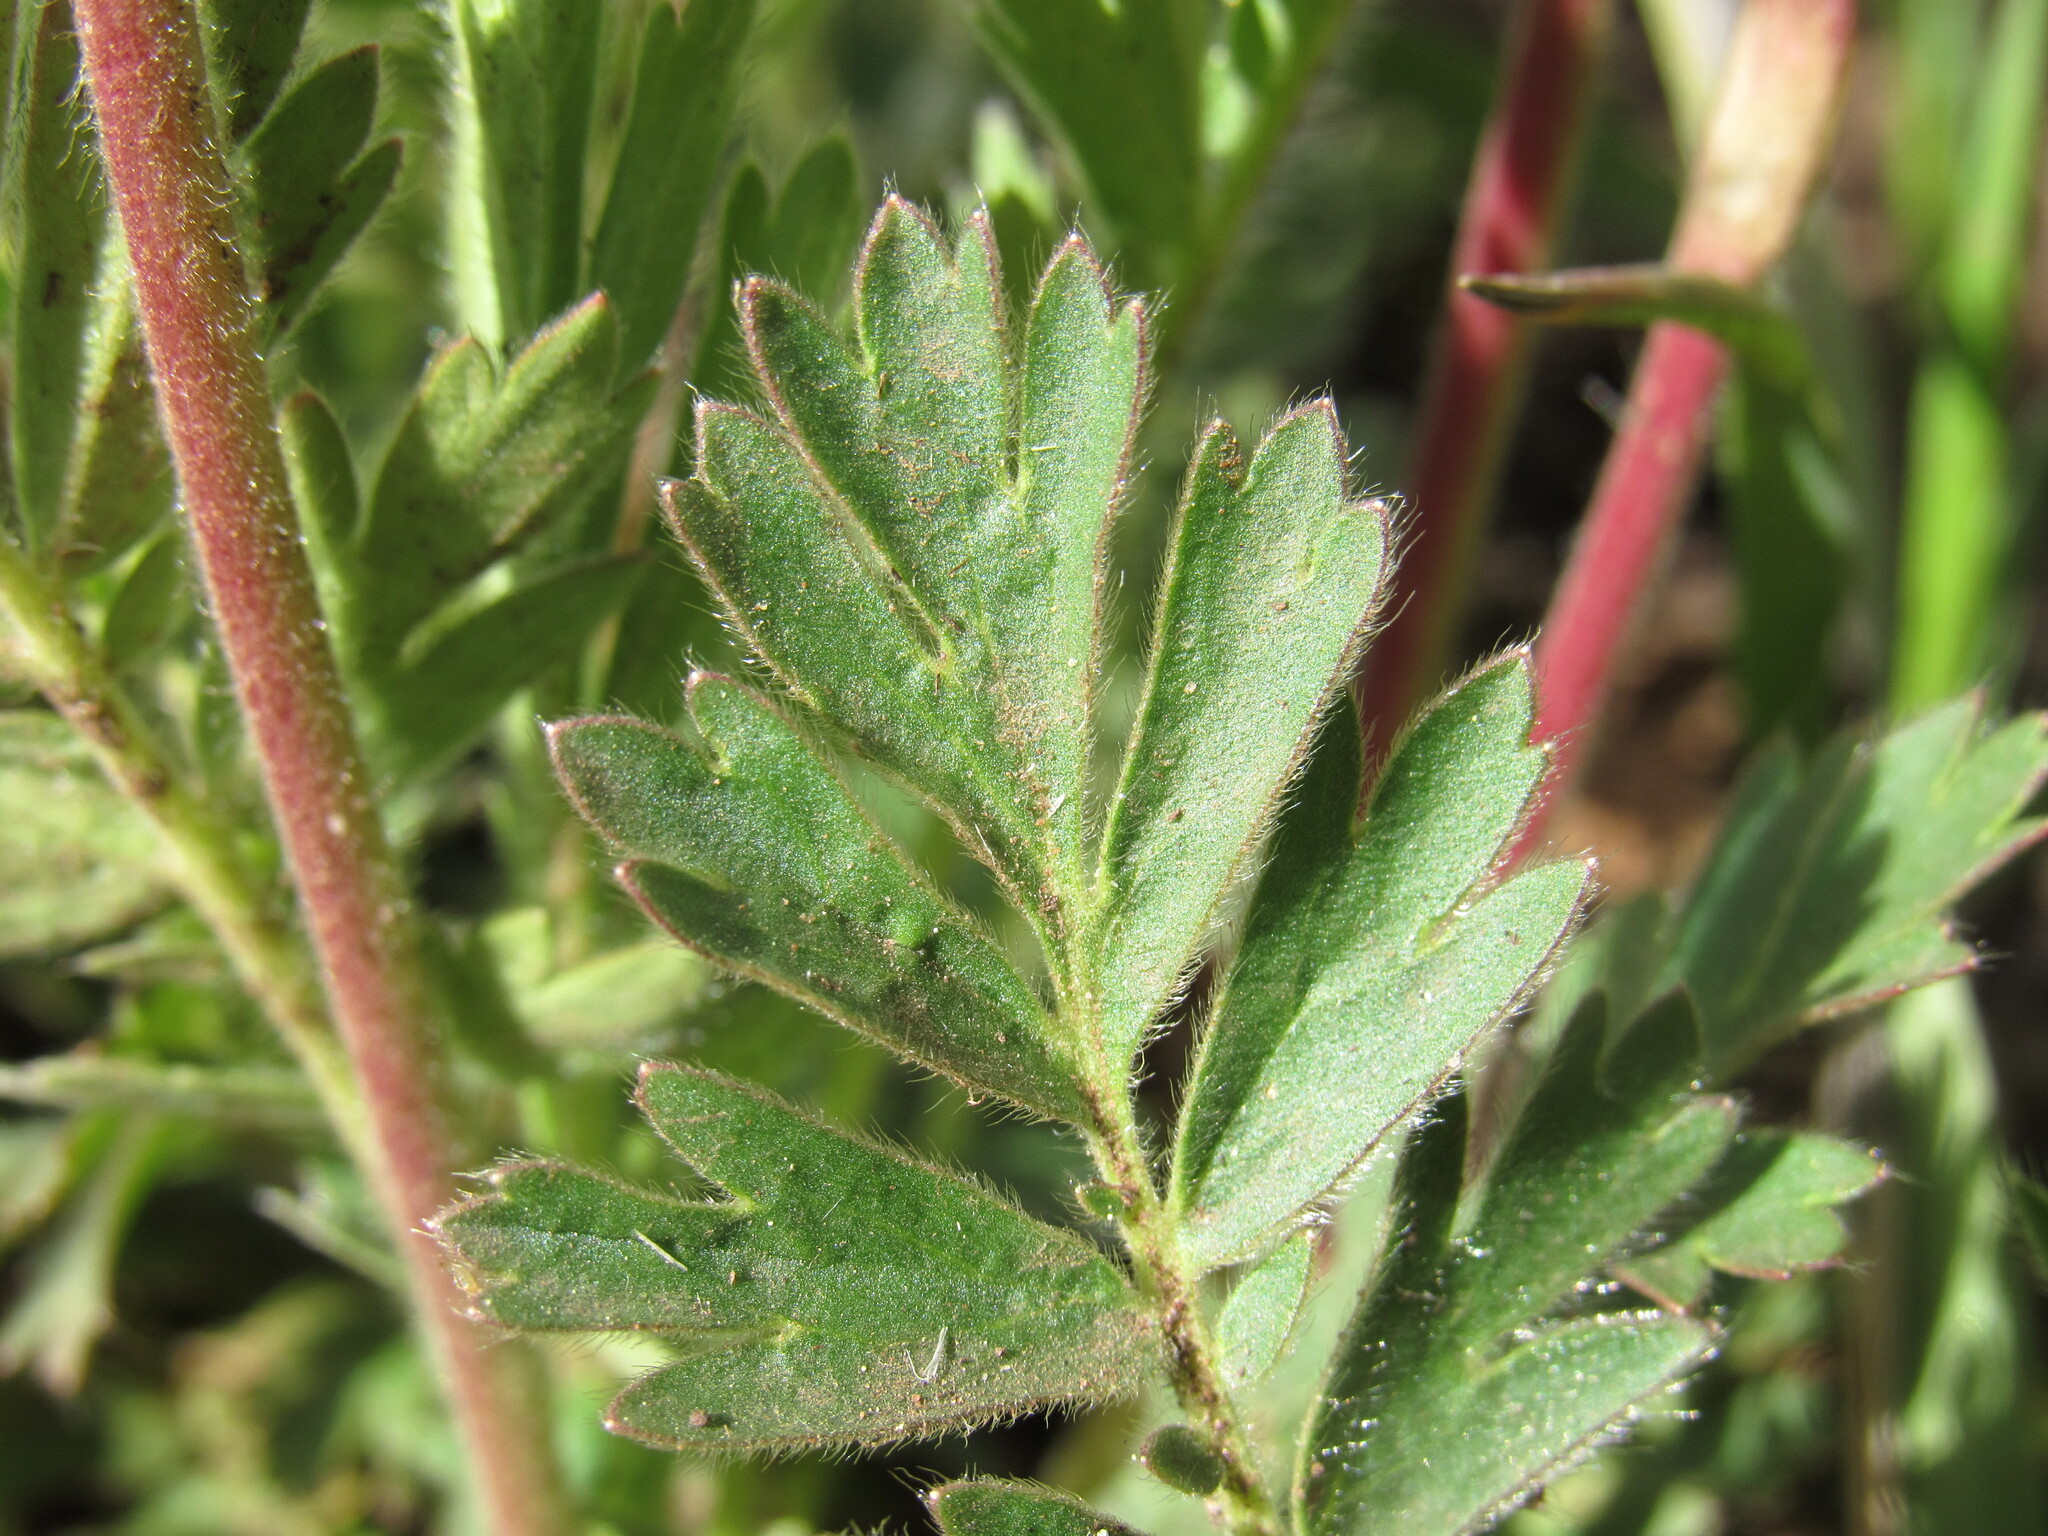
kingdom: Plantae
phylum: Tracheophyta
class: Magnoliopsida
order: Rosales
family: Rosaceae
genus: Geum
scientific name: Geum triflorum
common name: Old man's whiskers
